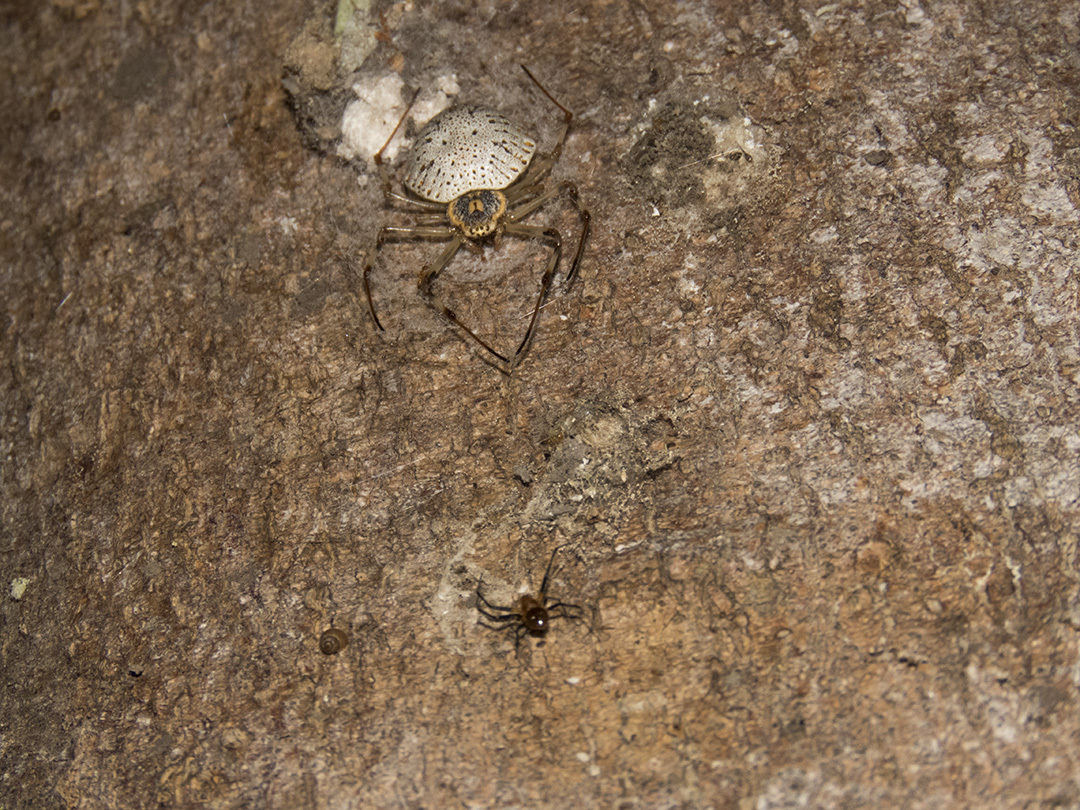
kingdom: Animalia
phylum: Arthropoda
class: Arachnida
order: Araneae
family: Araneidae
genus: Herennia
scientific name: Herennia multipuncta
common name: Spotted coin spider
